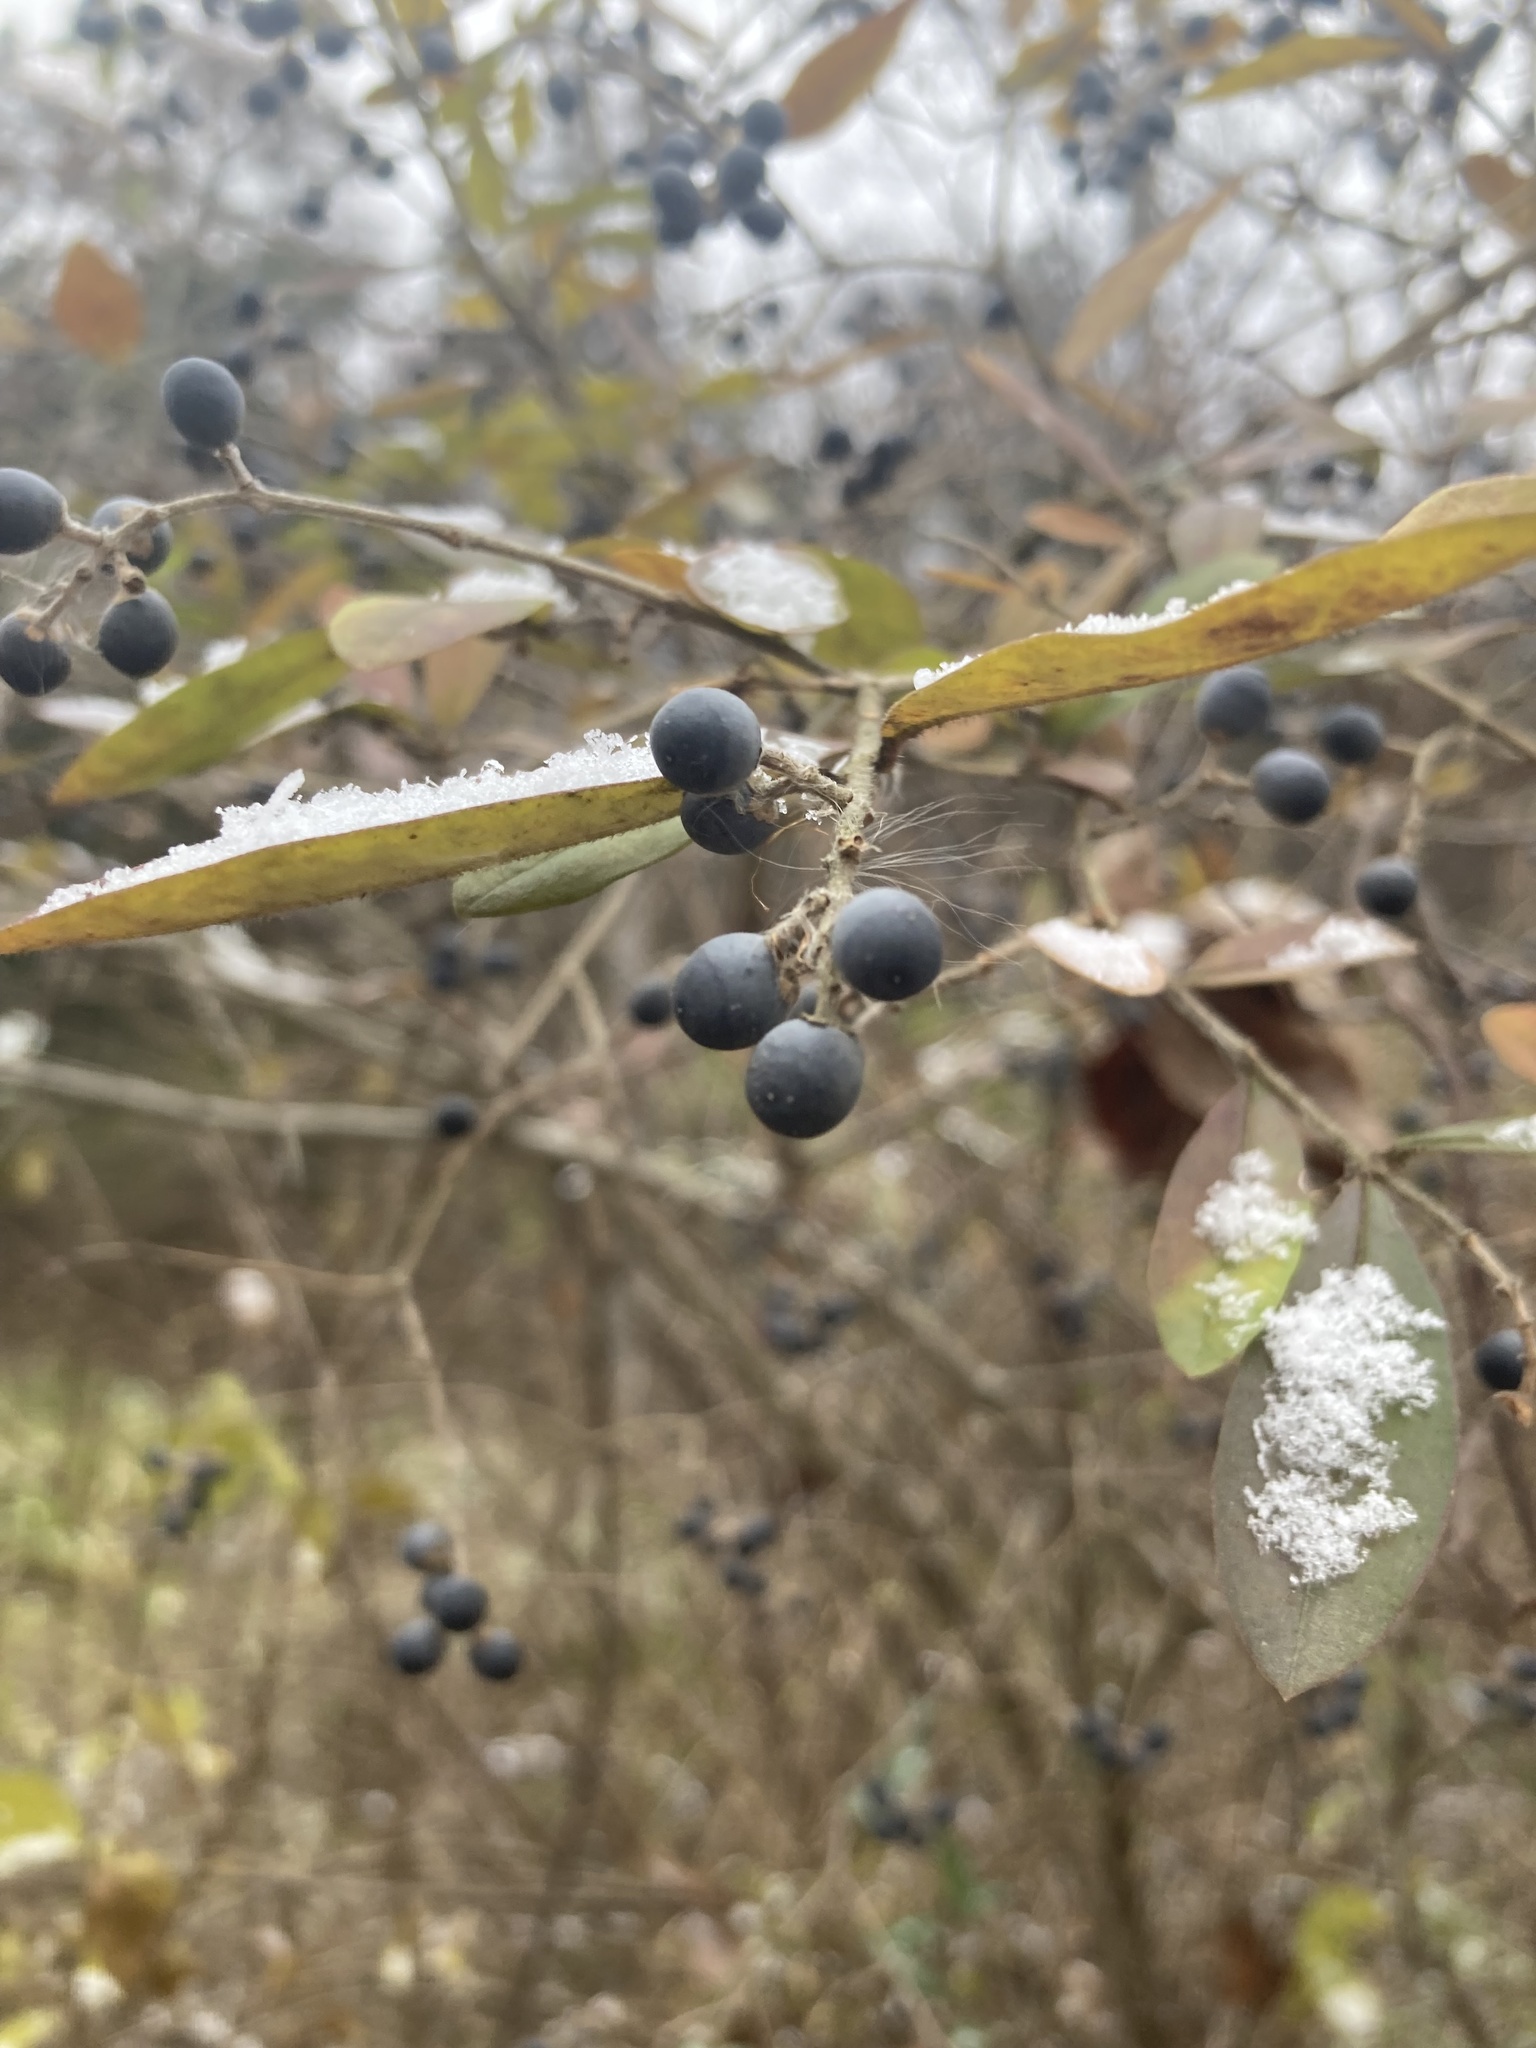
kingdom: Plantae
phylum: Tracheophyta
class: Magnoliopsida
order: Lamiales
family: Oleaceae
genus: Ligustrum
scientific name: Ligustrum obtusifolium
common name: Border privet
